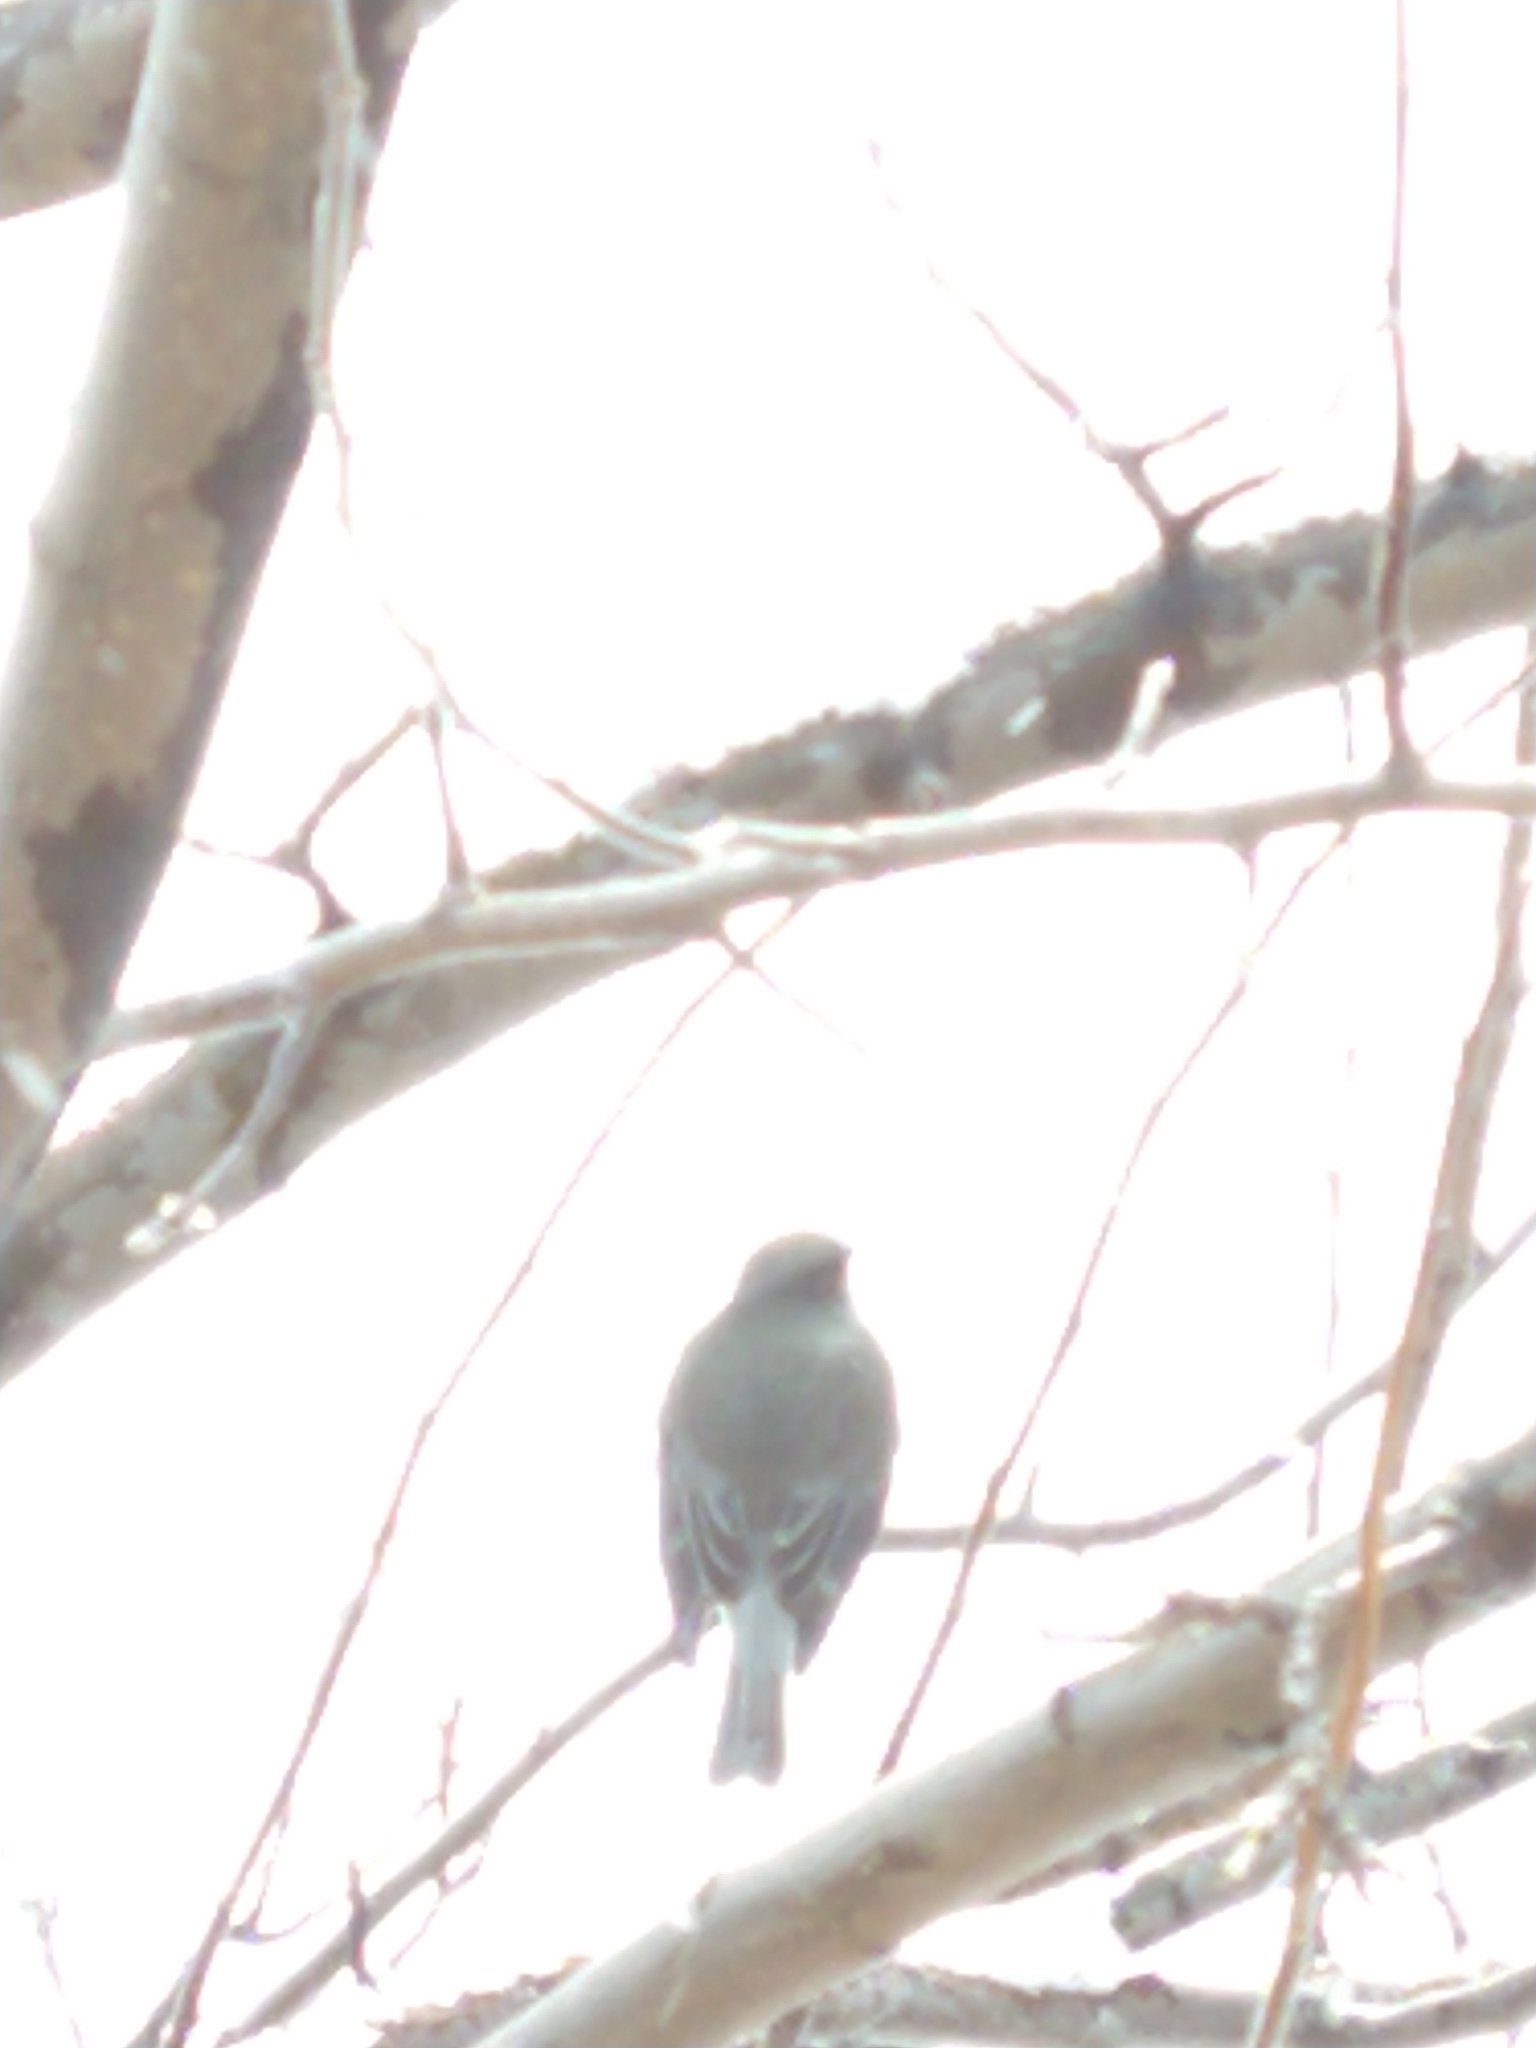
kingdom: Animalia
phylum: Chordata
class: Aves
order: Passeriformes
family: Tyrannidae
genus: Xolmis
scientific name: Xolmis pyrope
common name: Fire-eyed diucon
